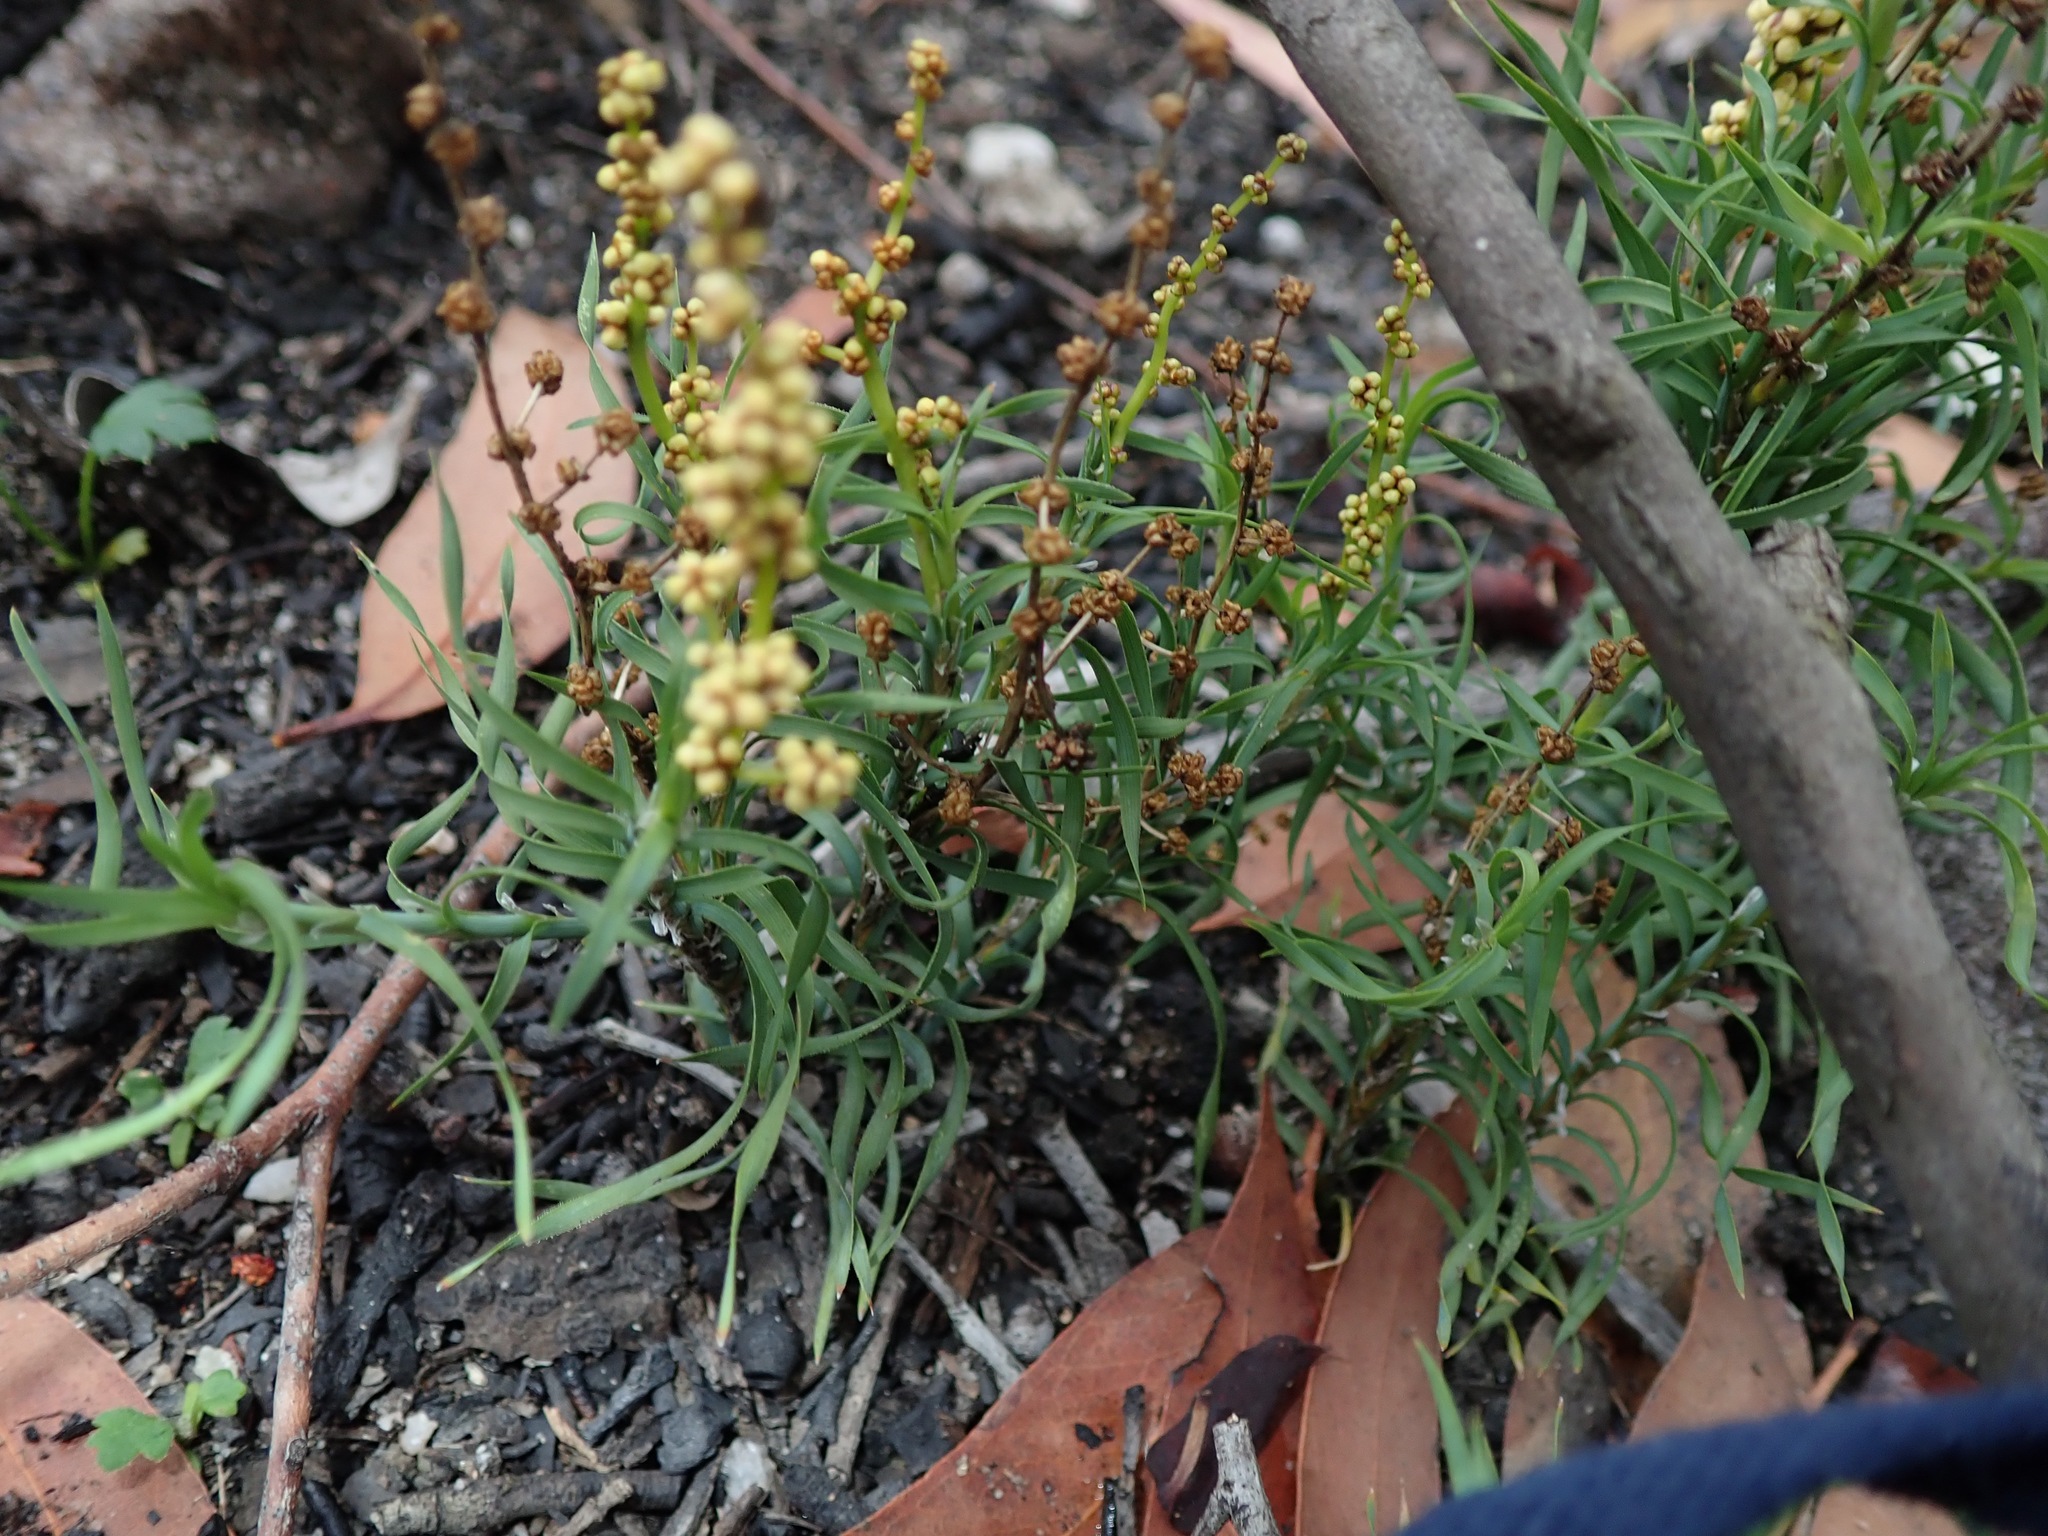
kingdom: Plantae
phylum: Tracheophyta
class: Liliopsida
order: Asparagales
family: Asparagaceae
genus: Lomandra
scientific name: Lomandra obliqua
